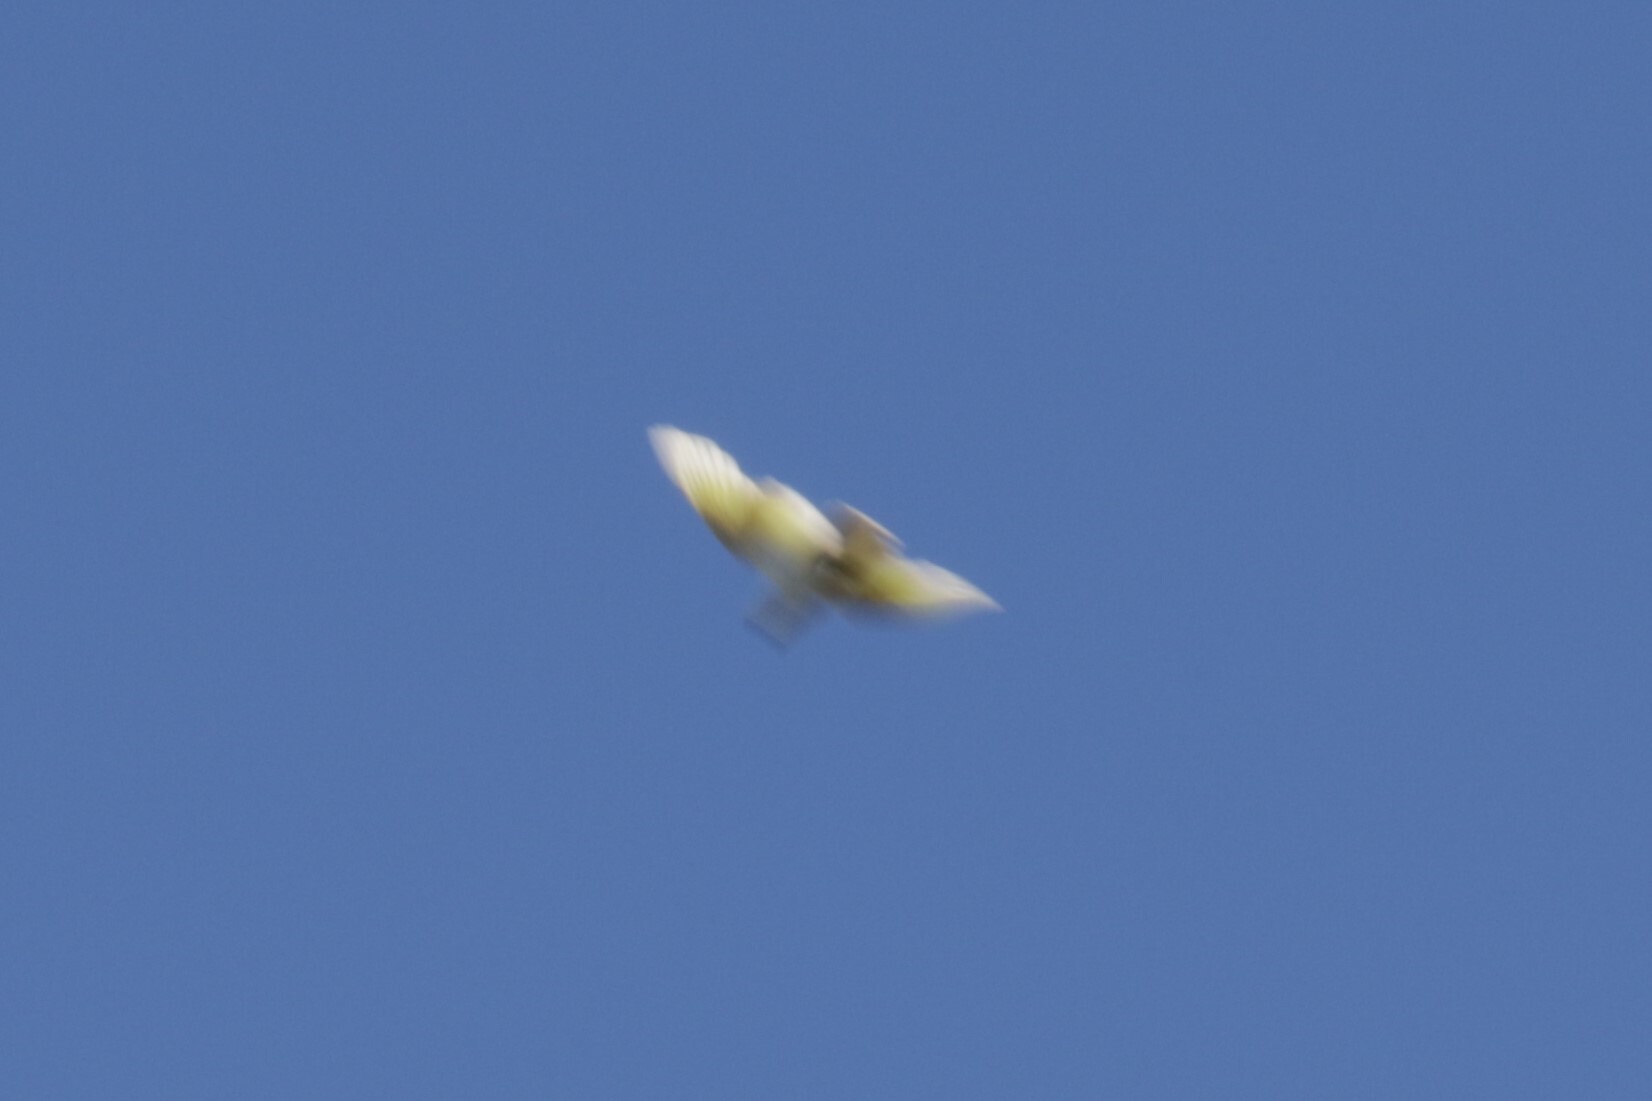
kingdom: Animalia
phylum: Chordata
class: Aves
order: Psittaciformes
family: Psittacidae
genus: Cacatua
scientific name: Cacatua galerita
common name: Sulphur-crested cockatoo
